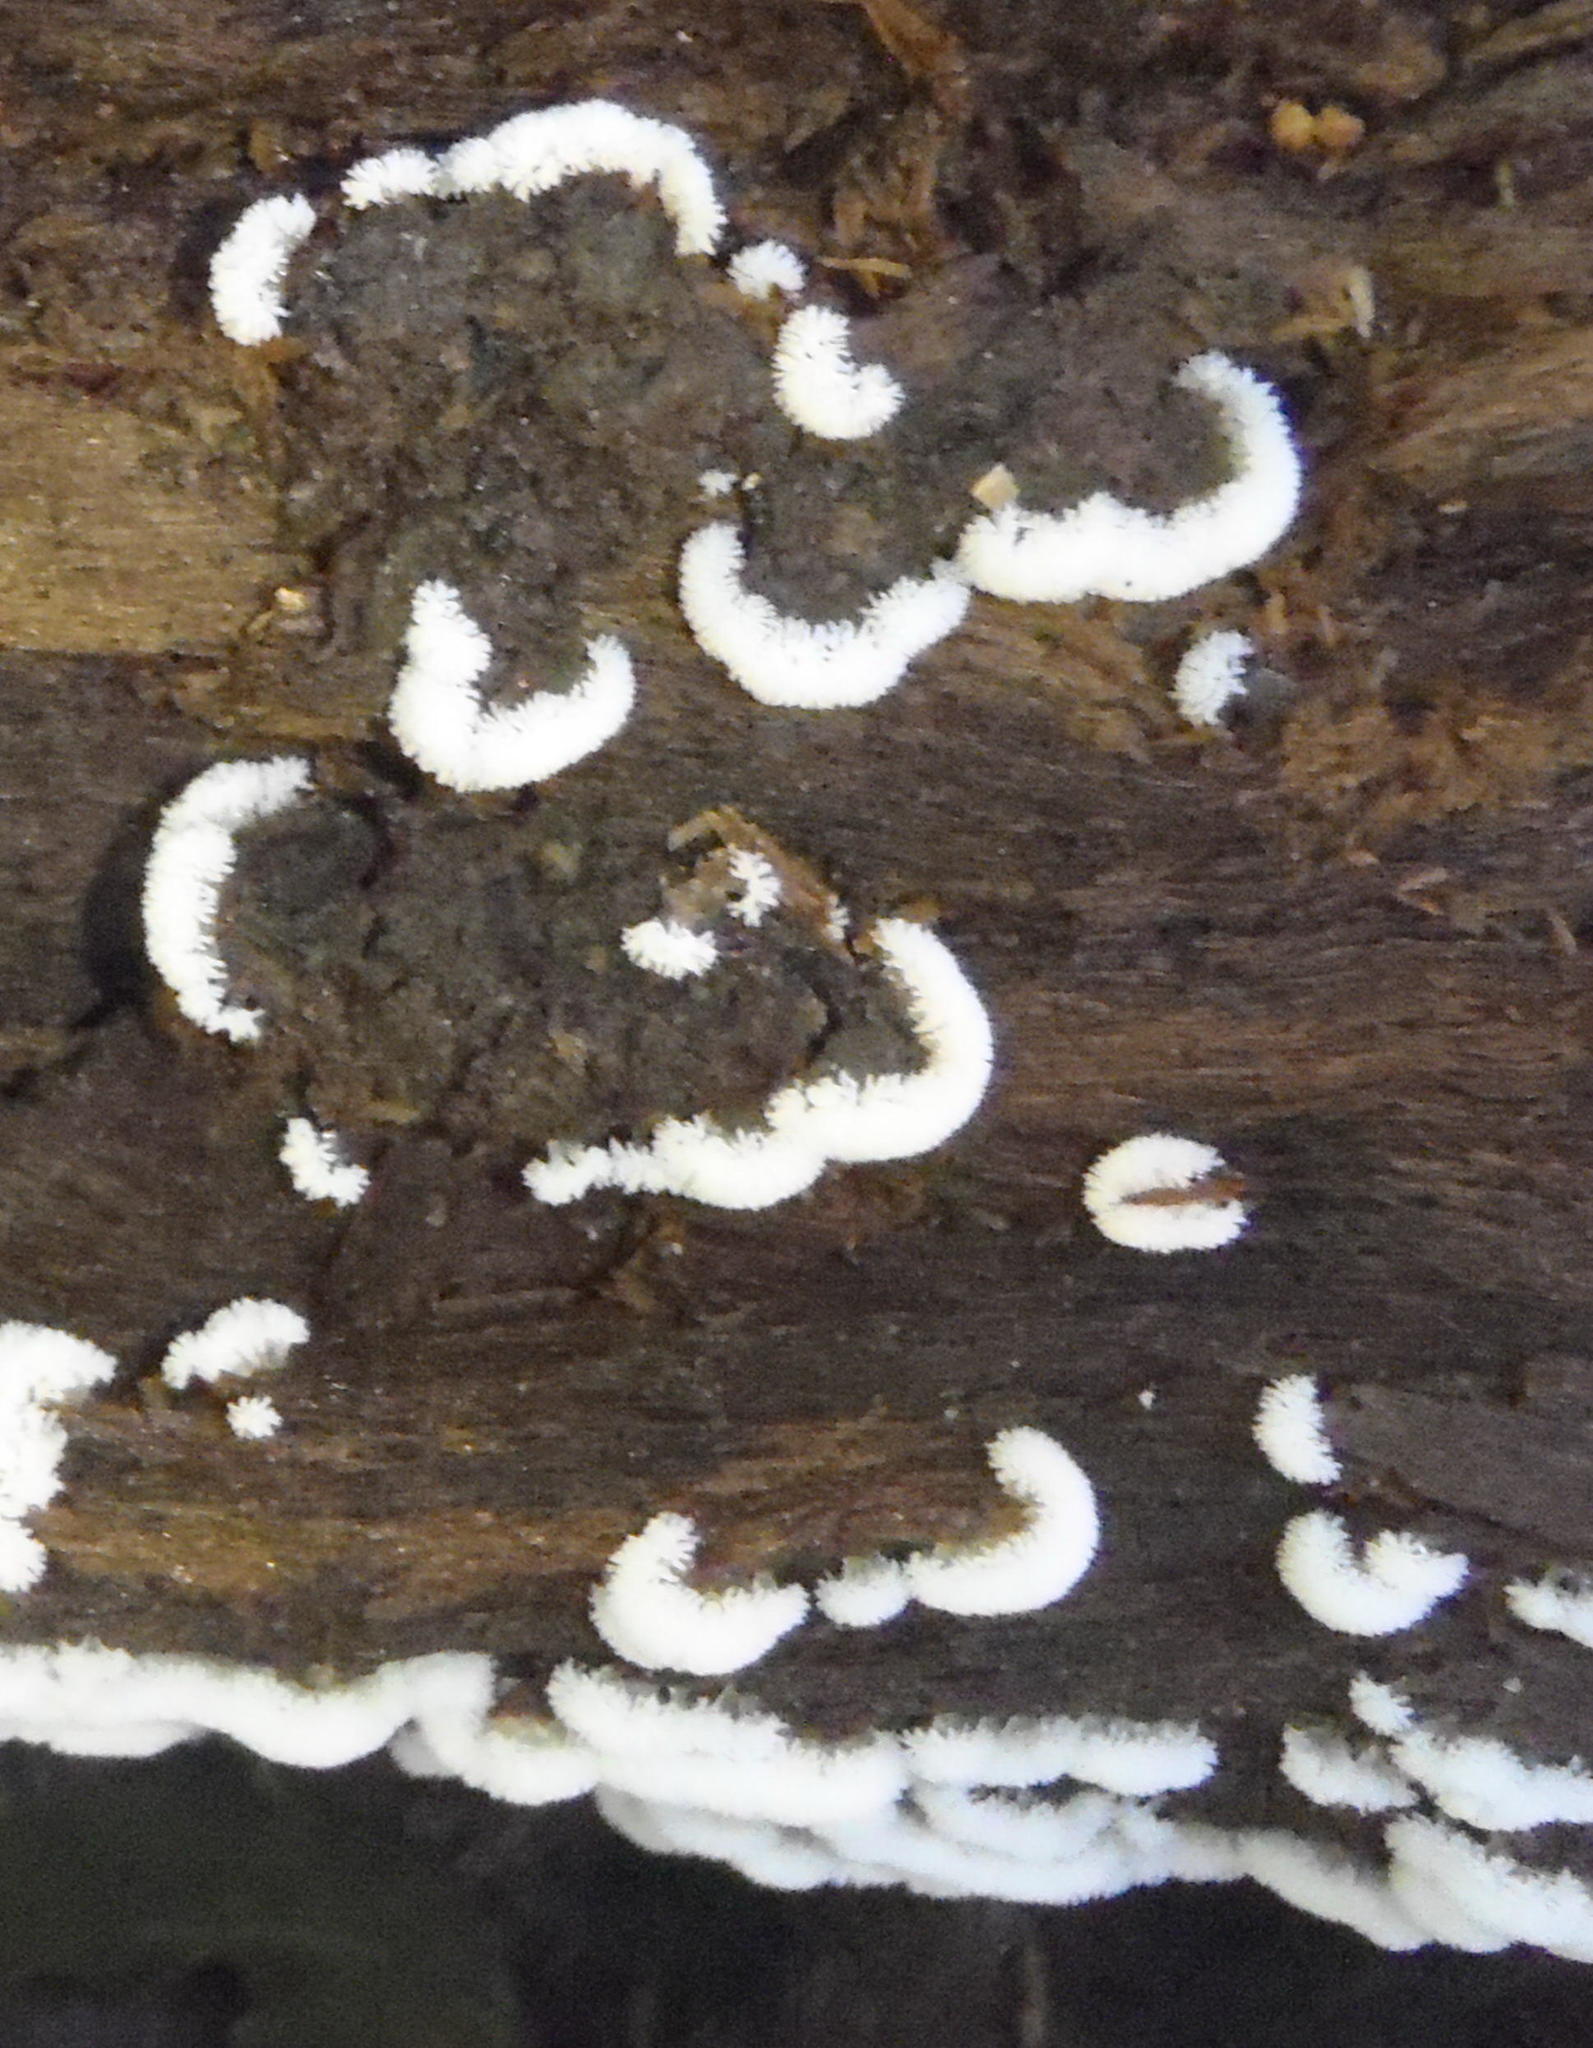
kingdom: Protozoa
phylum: Mycetozoa
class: Protosteliomycetes
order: Ceratiomyxales
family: Ceratiomyxaceae
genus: Ceratiomyxa
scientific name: Ceratiomyxa fruticulosa
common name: Honeycomb coral slime mold
